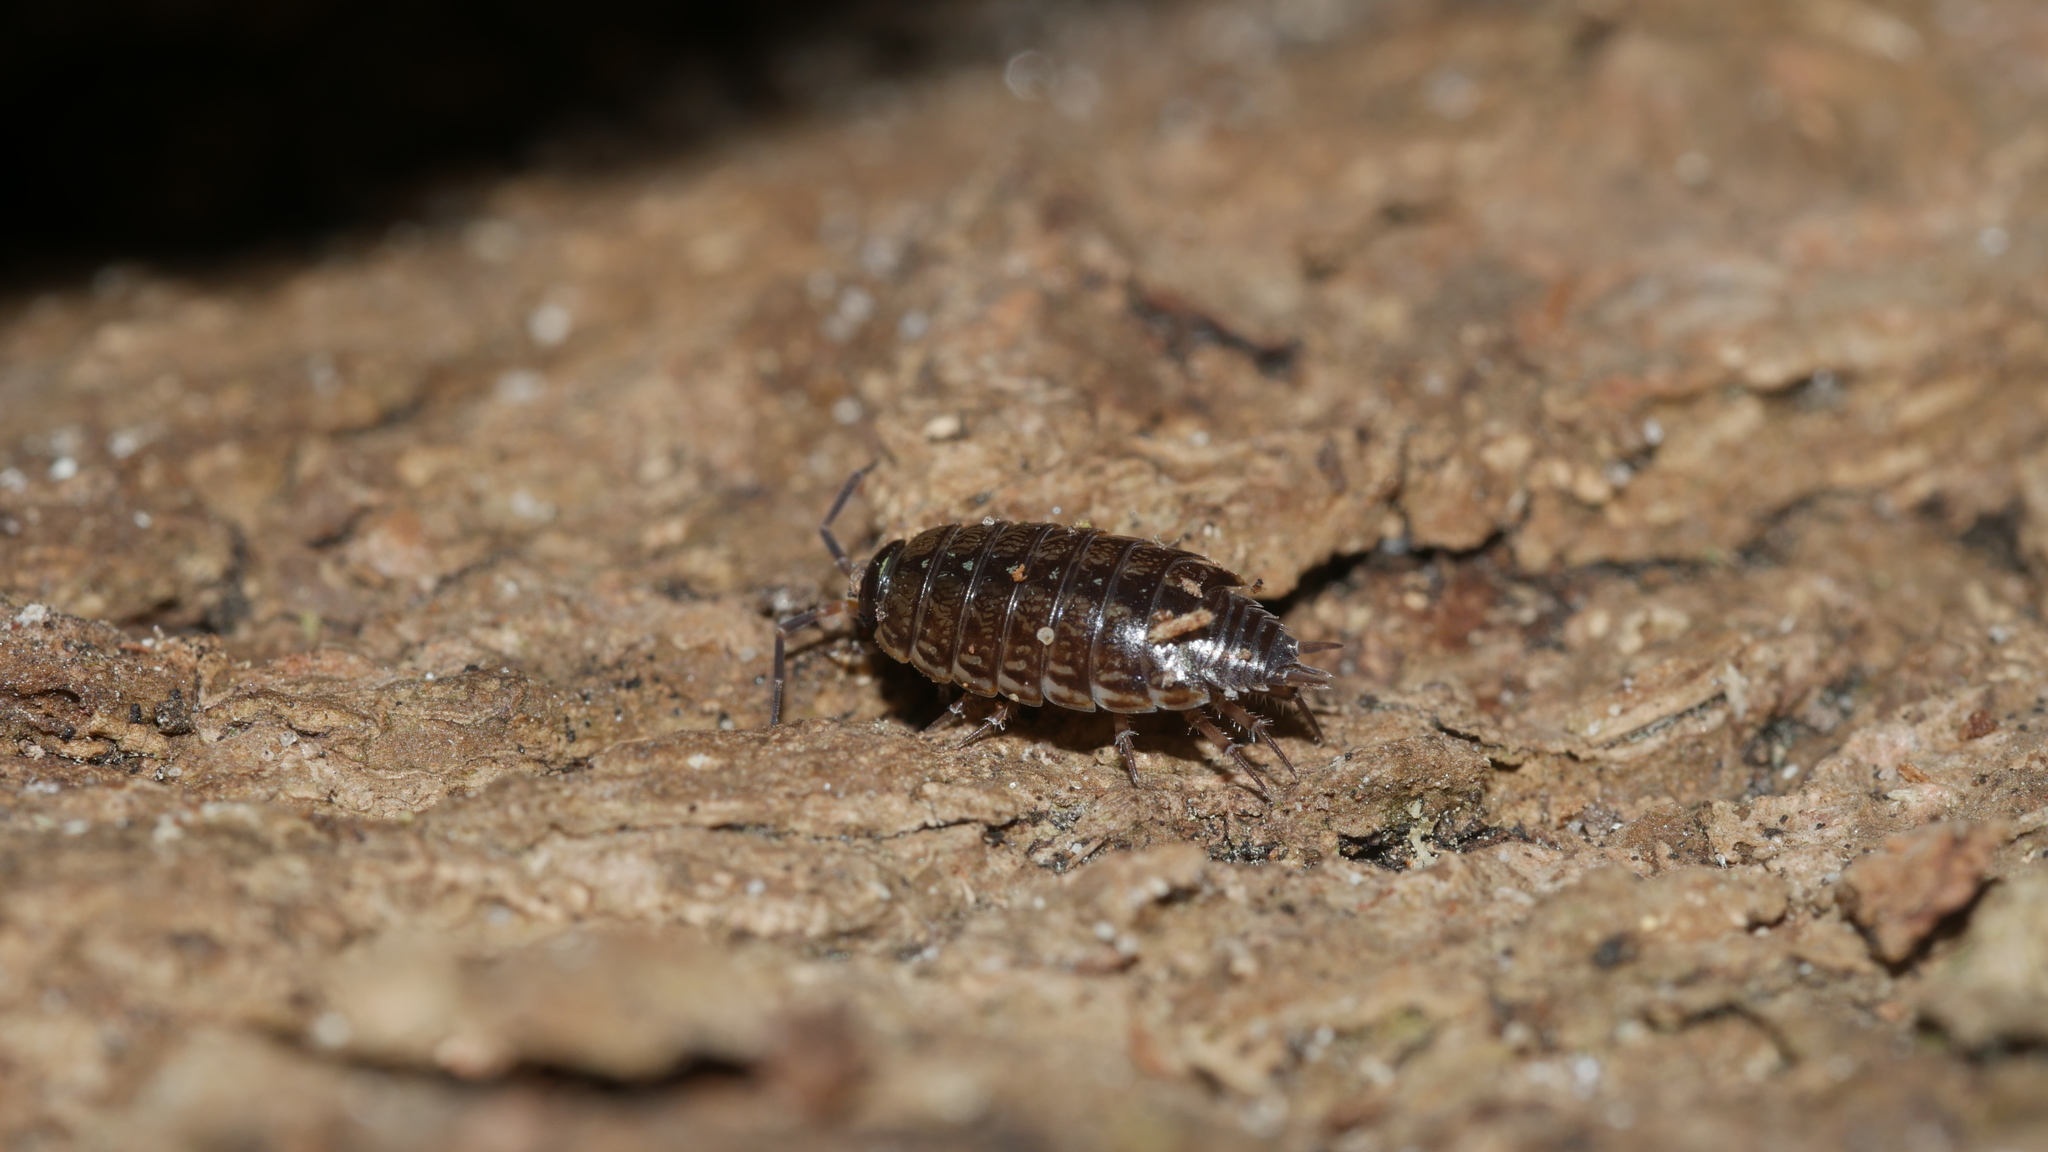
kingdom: Animalia
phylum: Arthropoda
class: Malacostraca
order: Isopoda
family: Philosciidae
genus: Philoscia
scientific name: Philoscia muscorum
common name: Common striped woodlouse
